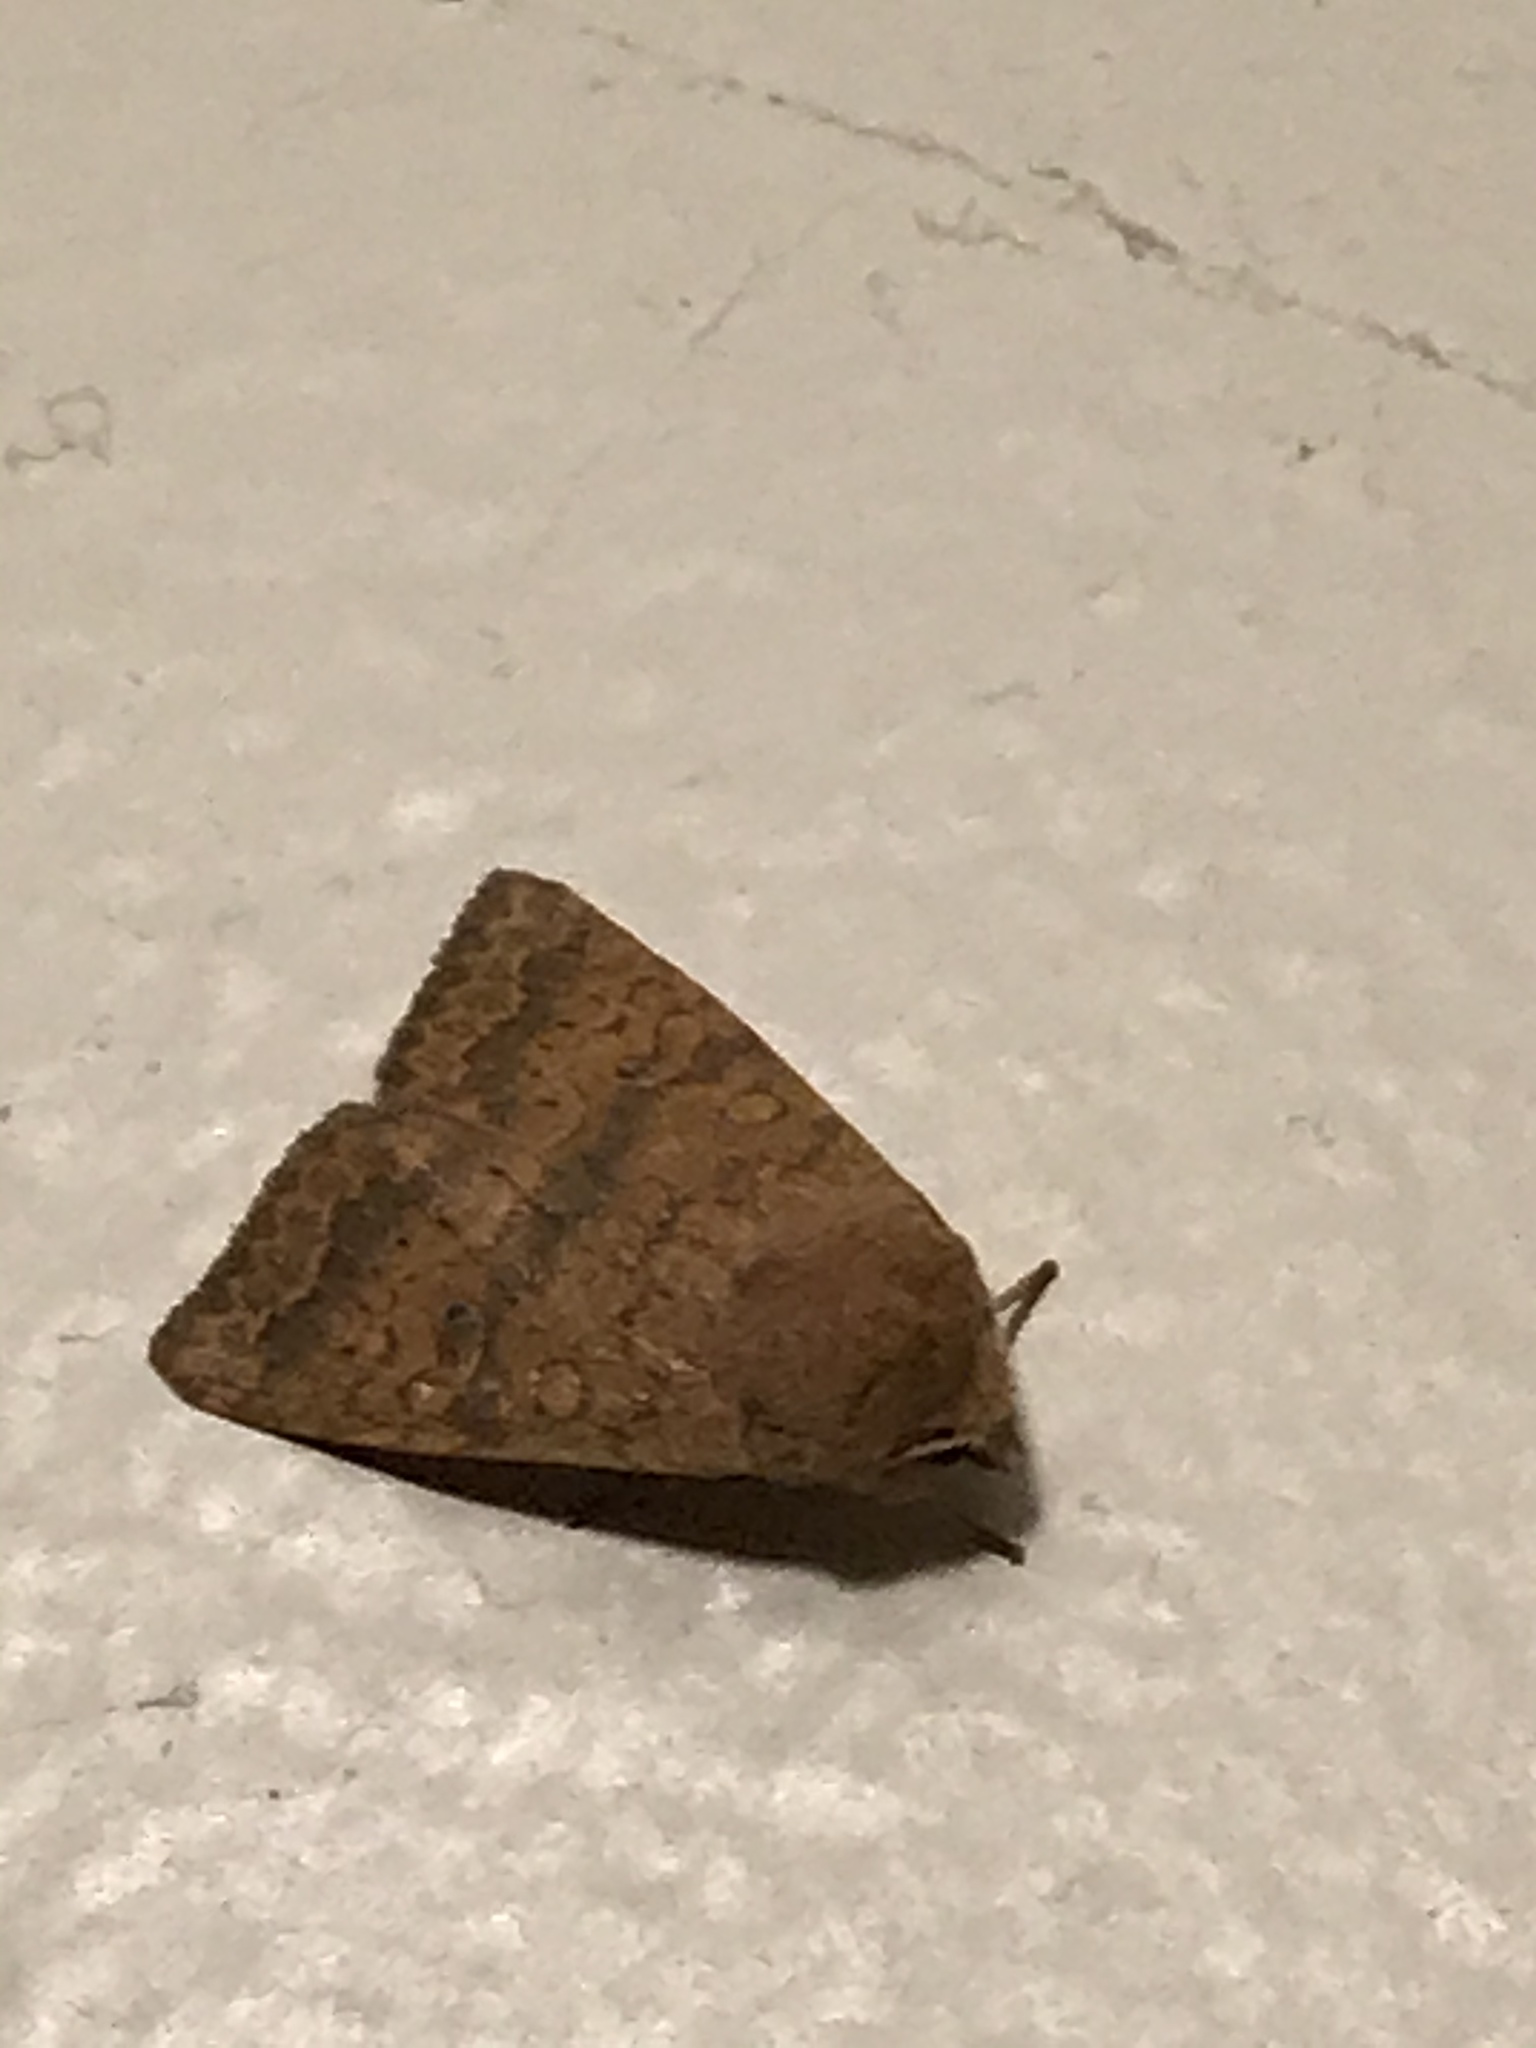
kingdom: Animalia
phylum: Arthropoda
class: Insecta
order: Lepidoptera
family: Noctuidae
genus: Agrochola
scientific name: Agrochola bicolorago
